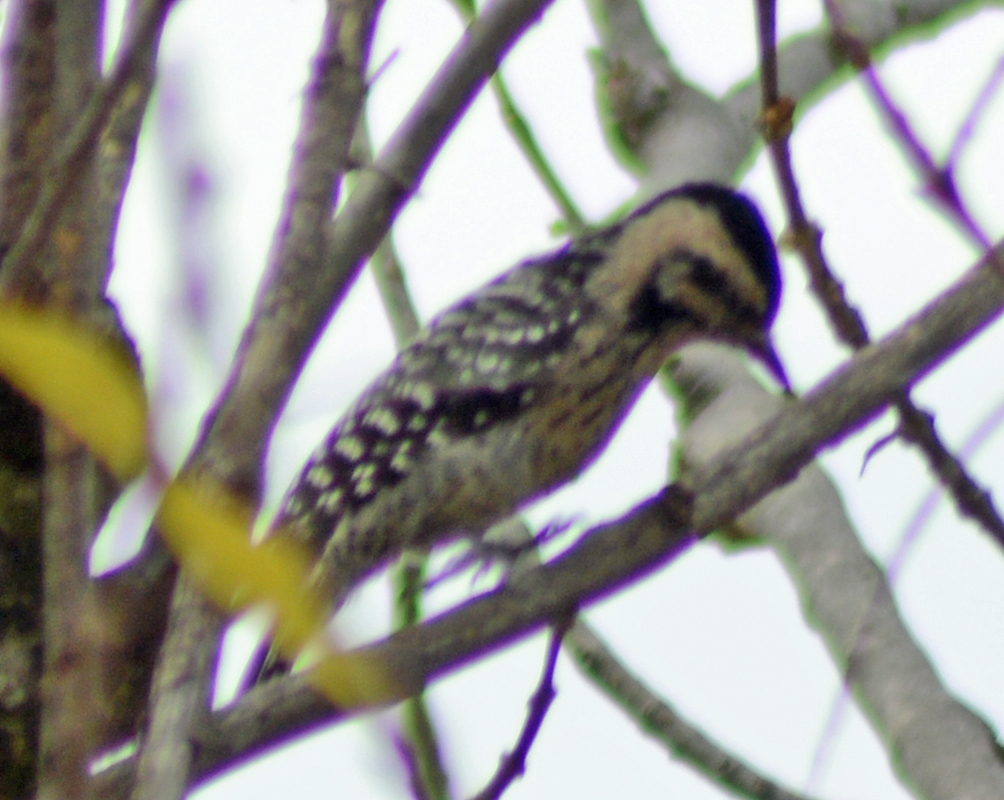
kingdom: Animalia
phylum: Chordata
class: Aves
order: Piciformes
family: Picidae
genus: Dryobates
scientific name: Dryobates scalaris
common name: Ladder-backed woodpecker
